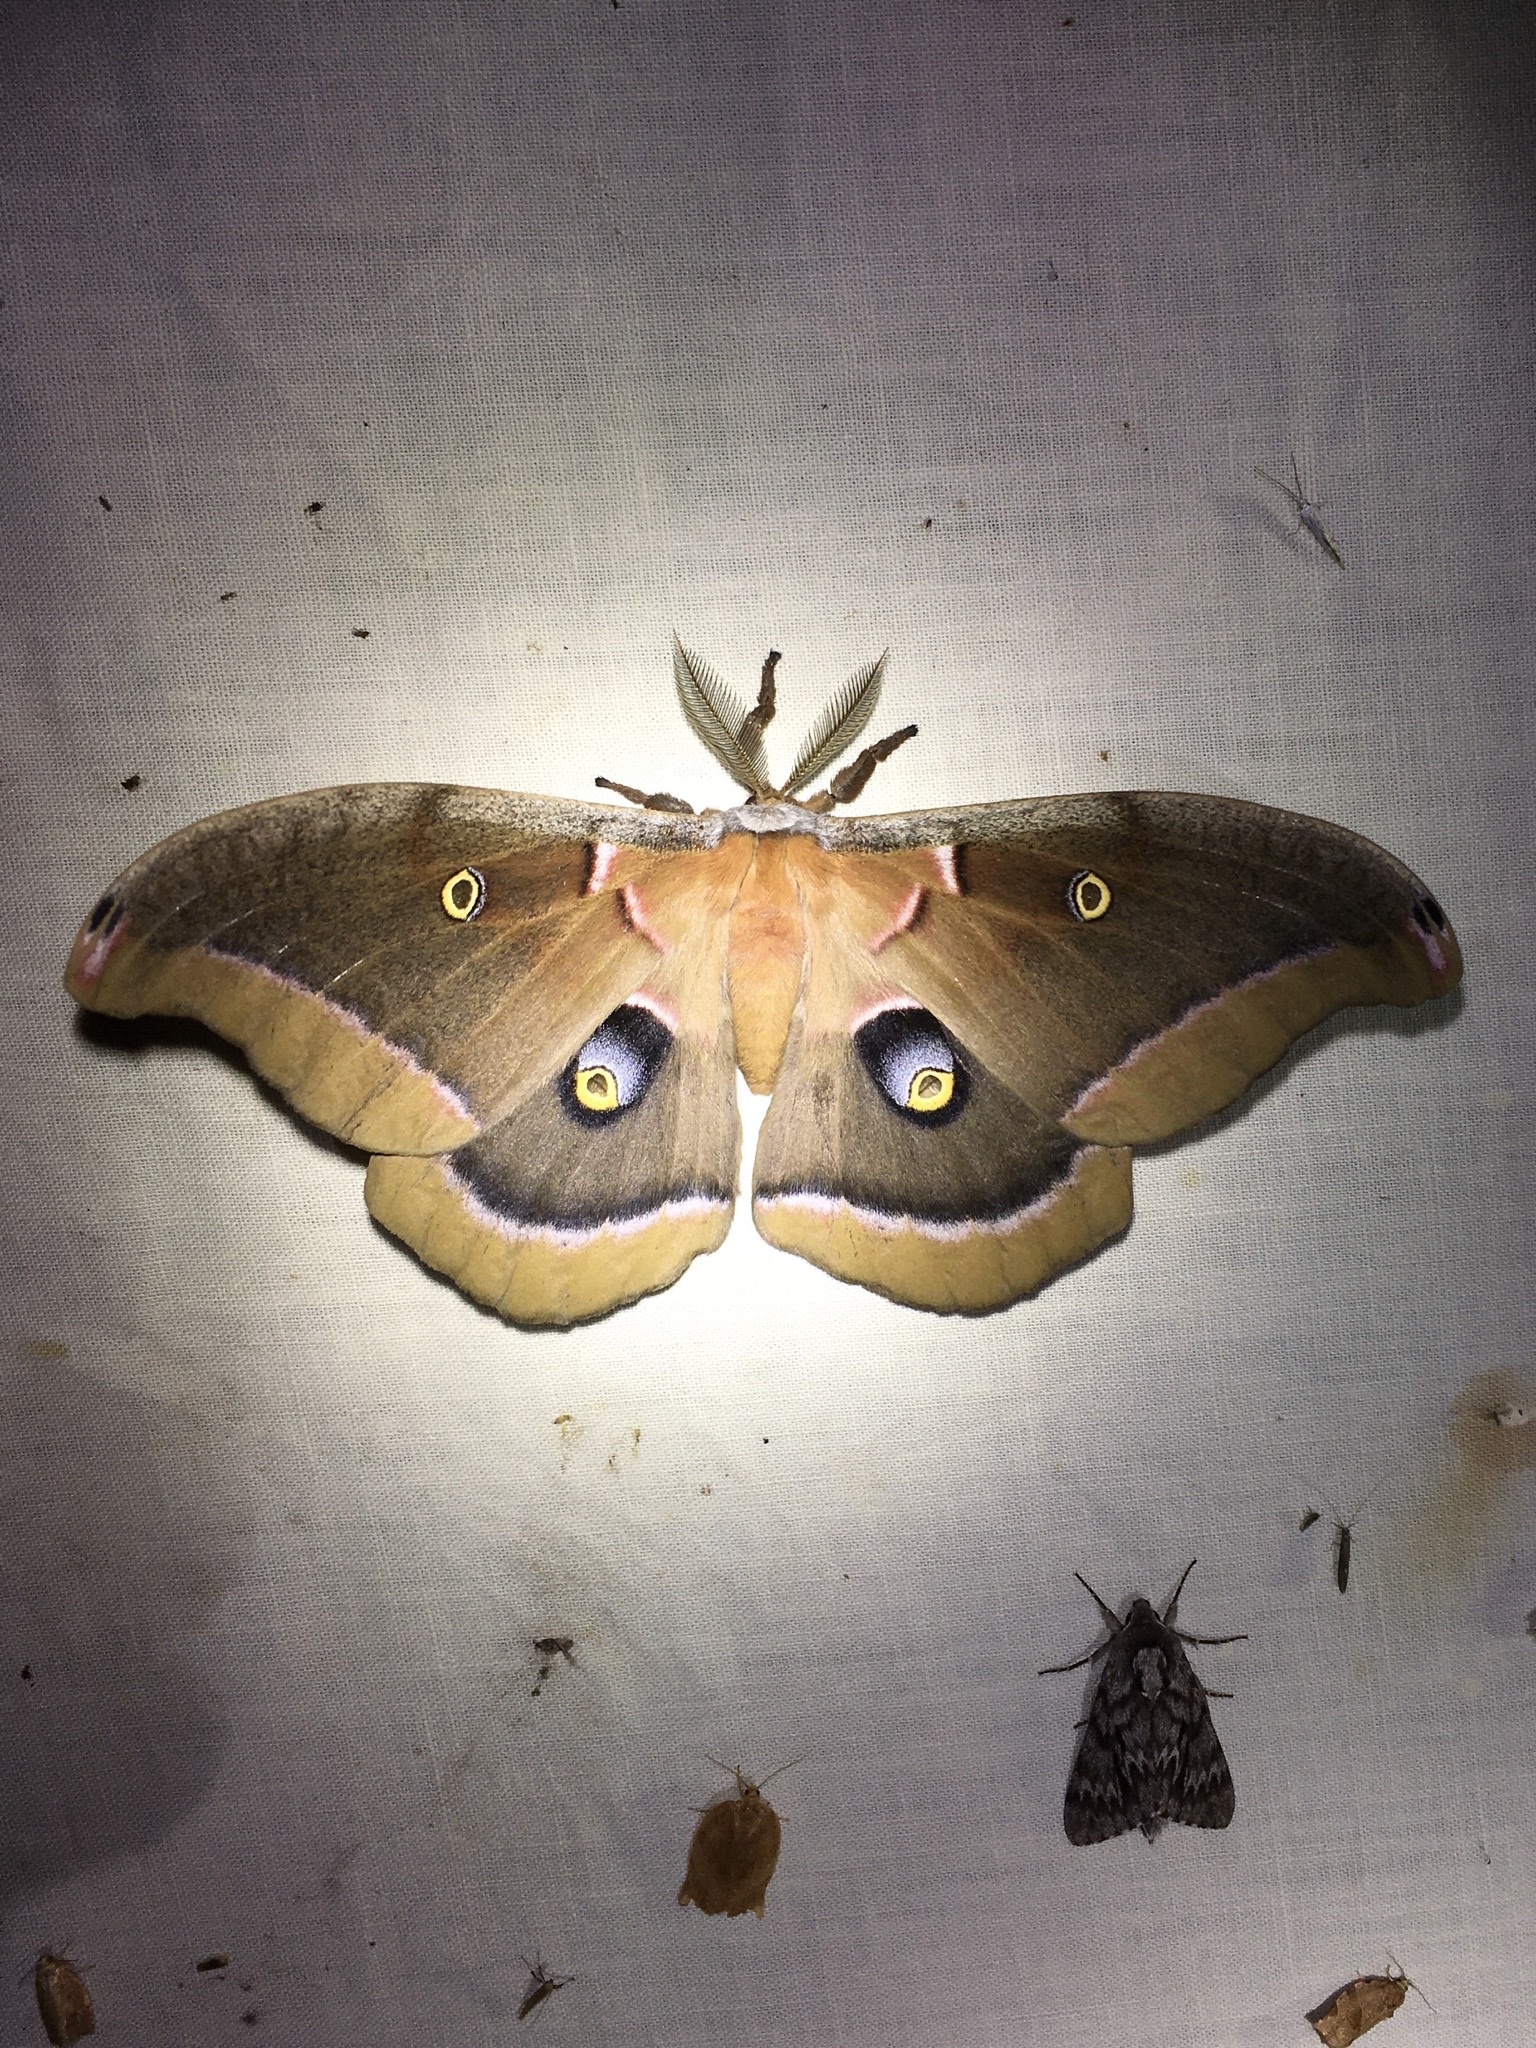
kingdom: Animalia
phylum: Arthropoda
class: Insecta
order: Lepidoptera
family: Saturniidae
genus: Antheraea
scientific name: Antheraea polyphemus
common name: Polyphemus moth
